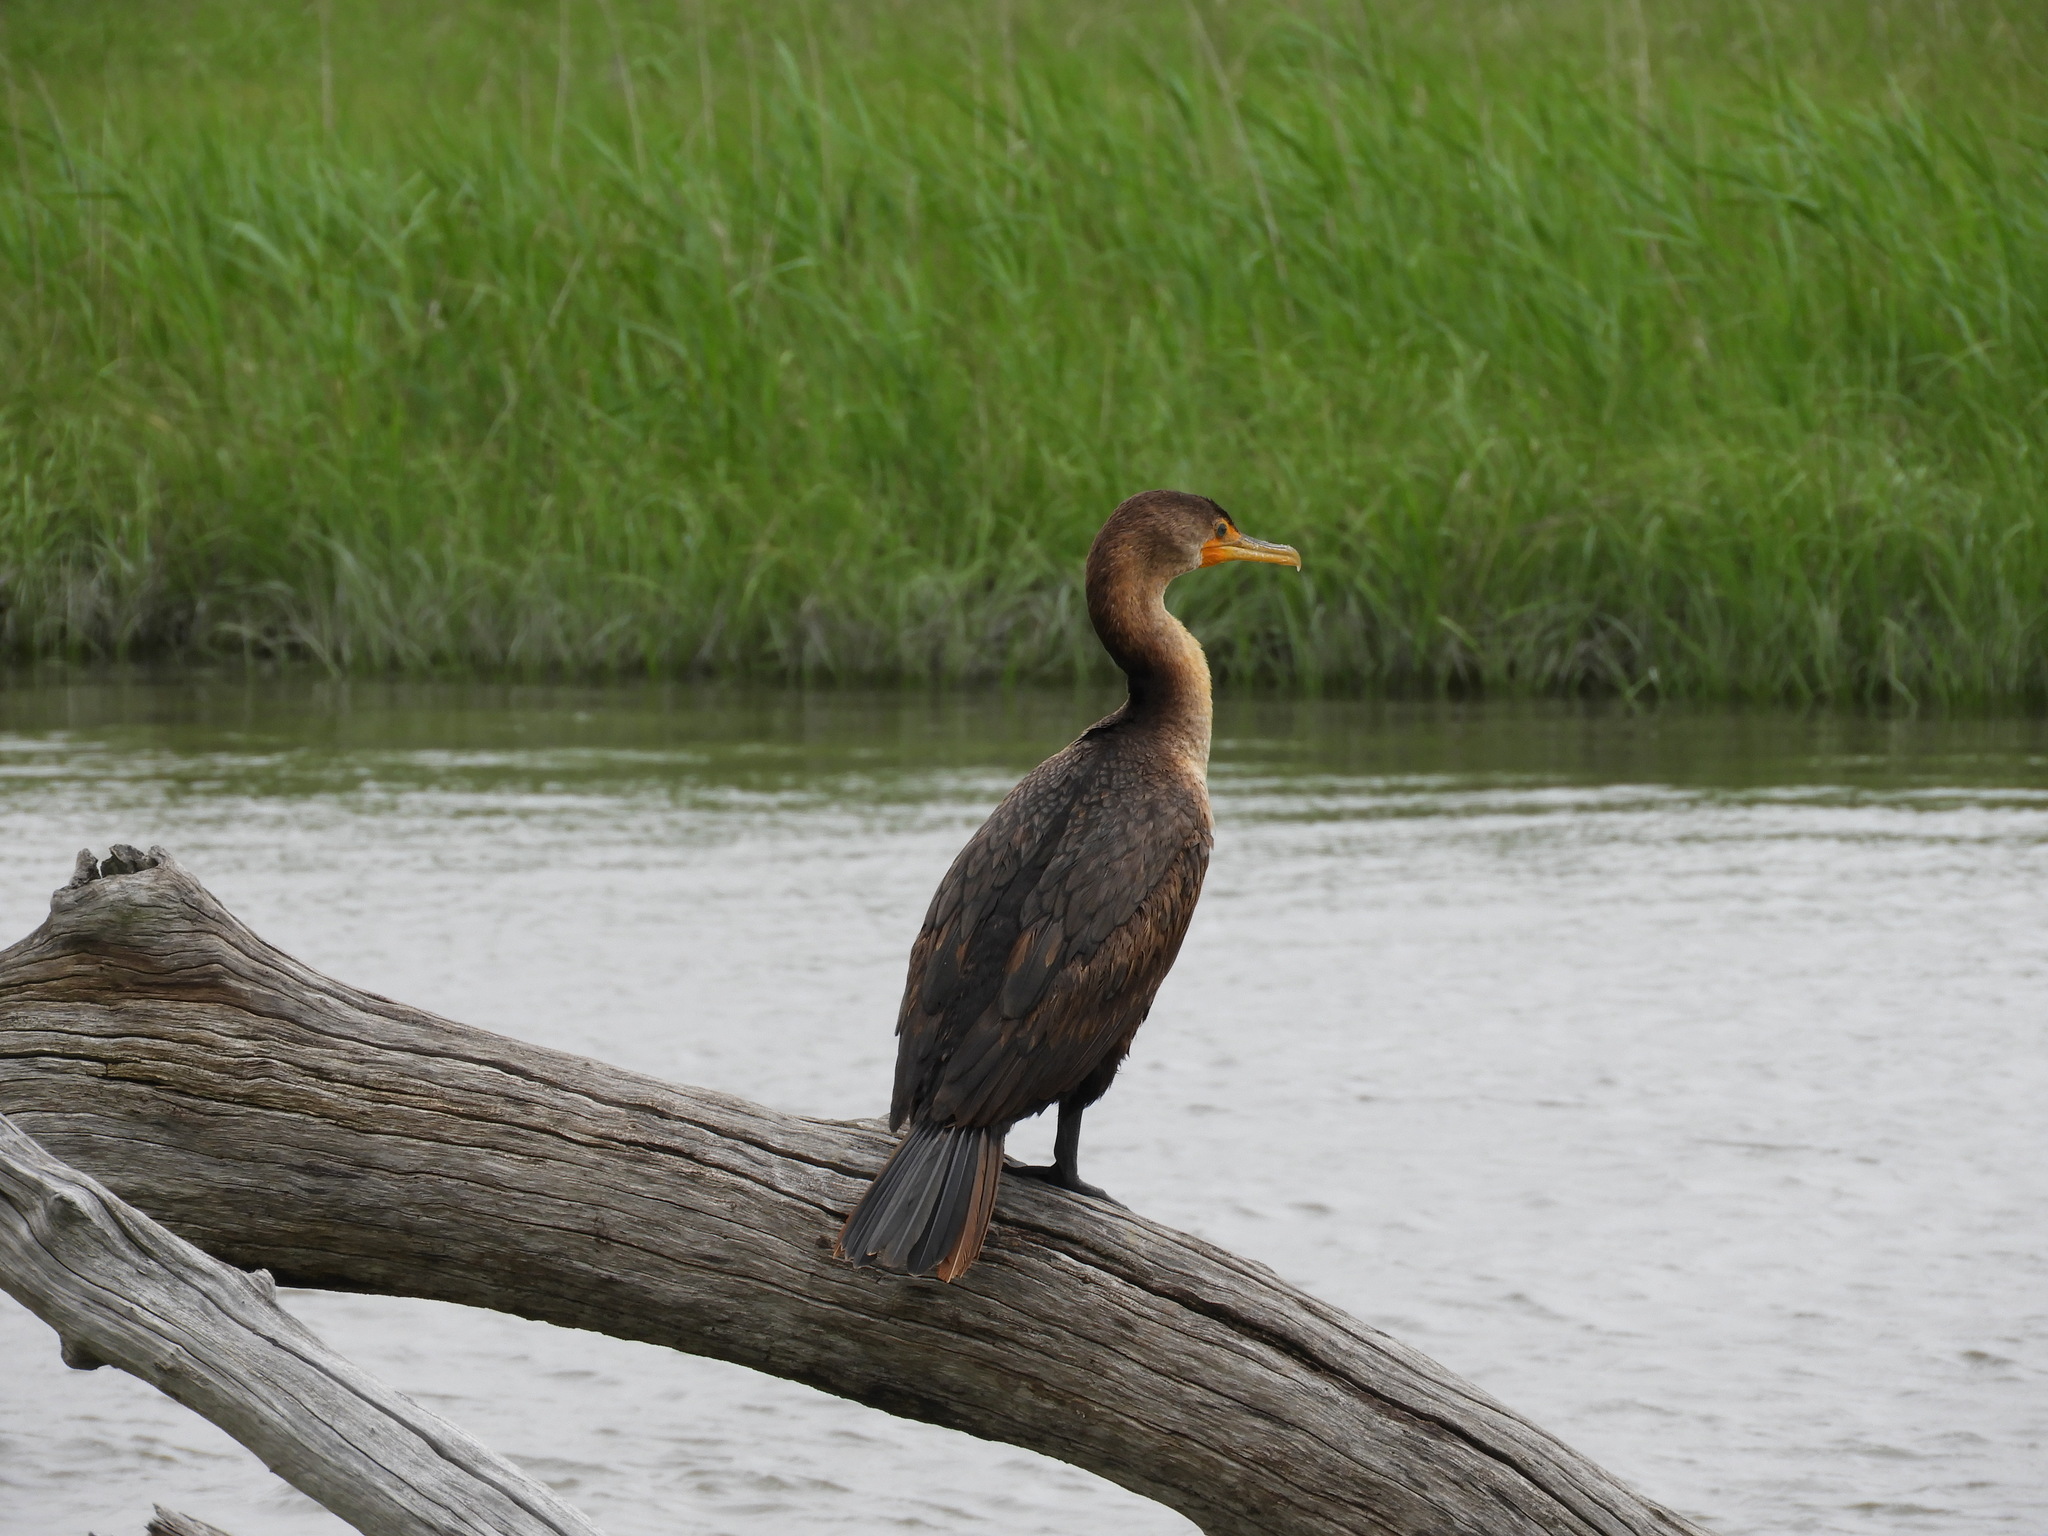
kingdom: Animalia
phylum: Chordata
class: Aves
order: Suliformes
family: Phalacrocoracidae
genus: Phalacrocorax
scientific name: Phalacrocorax auritus
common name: Double-crested cormorant
